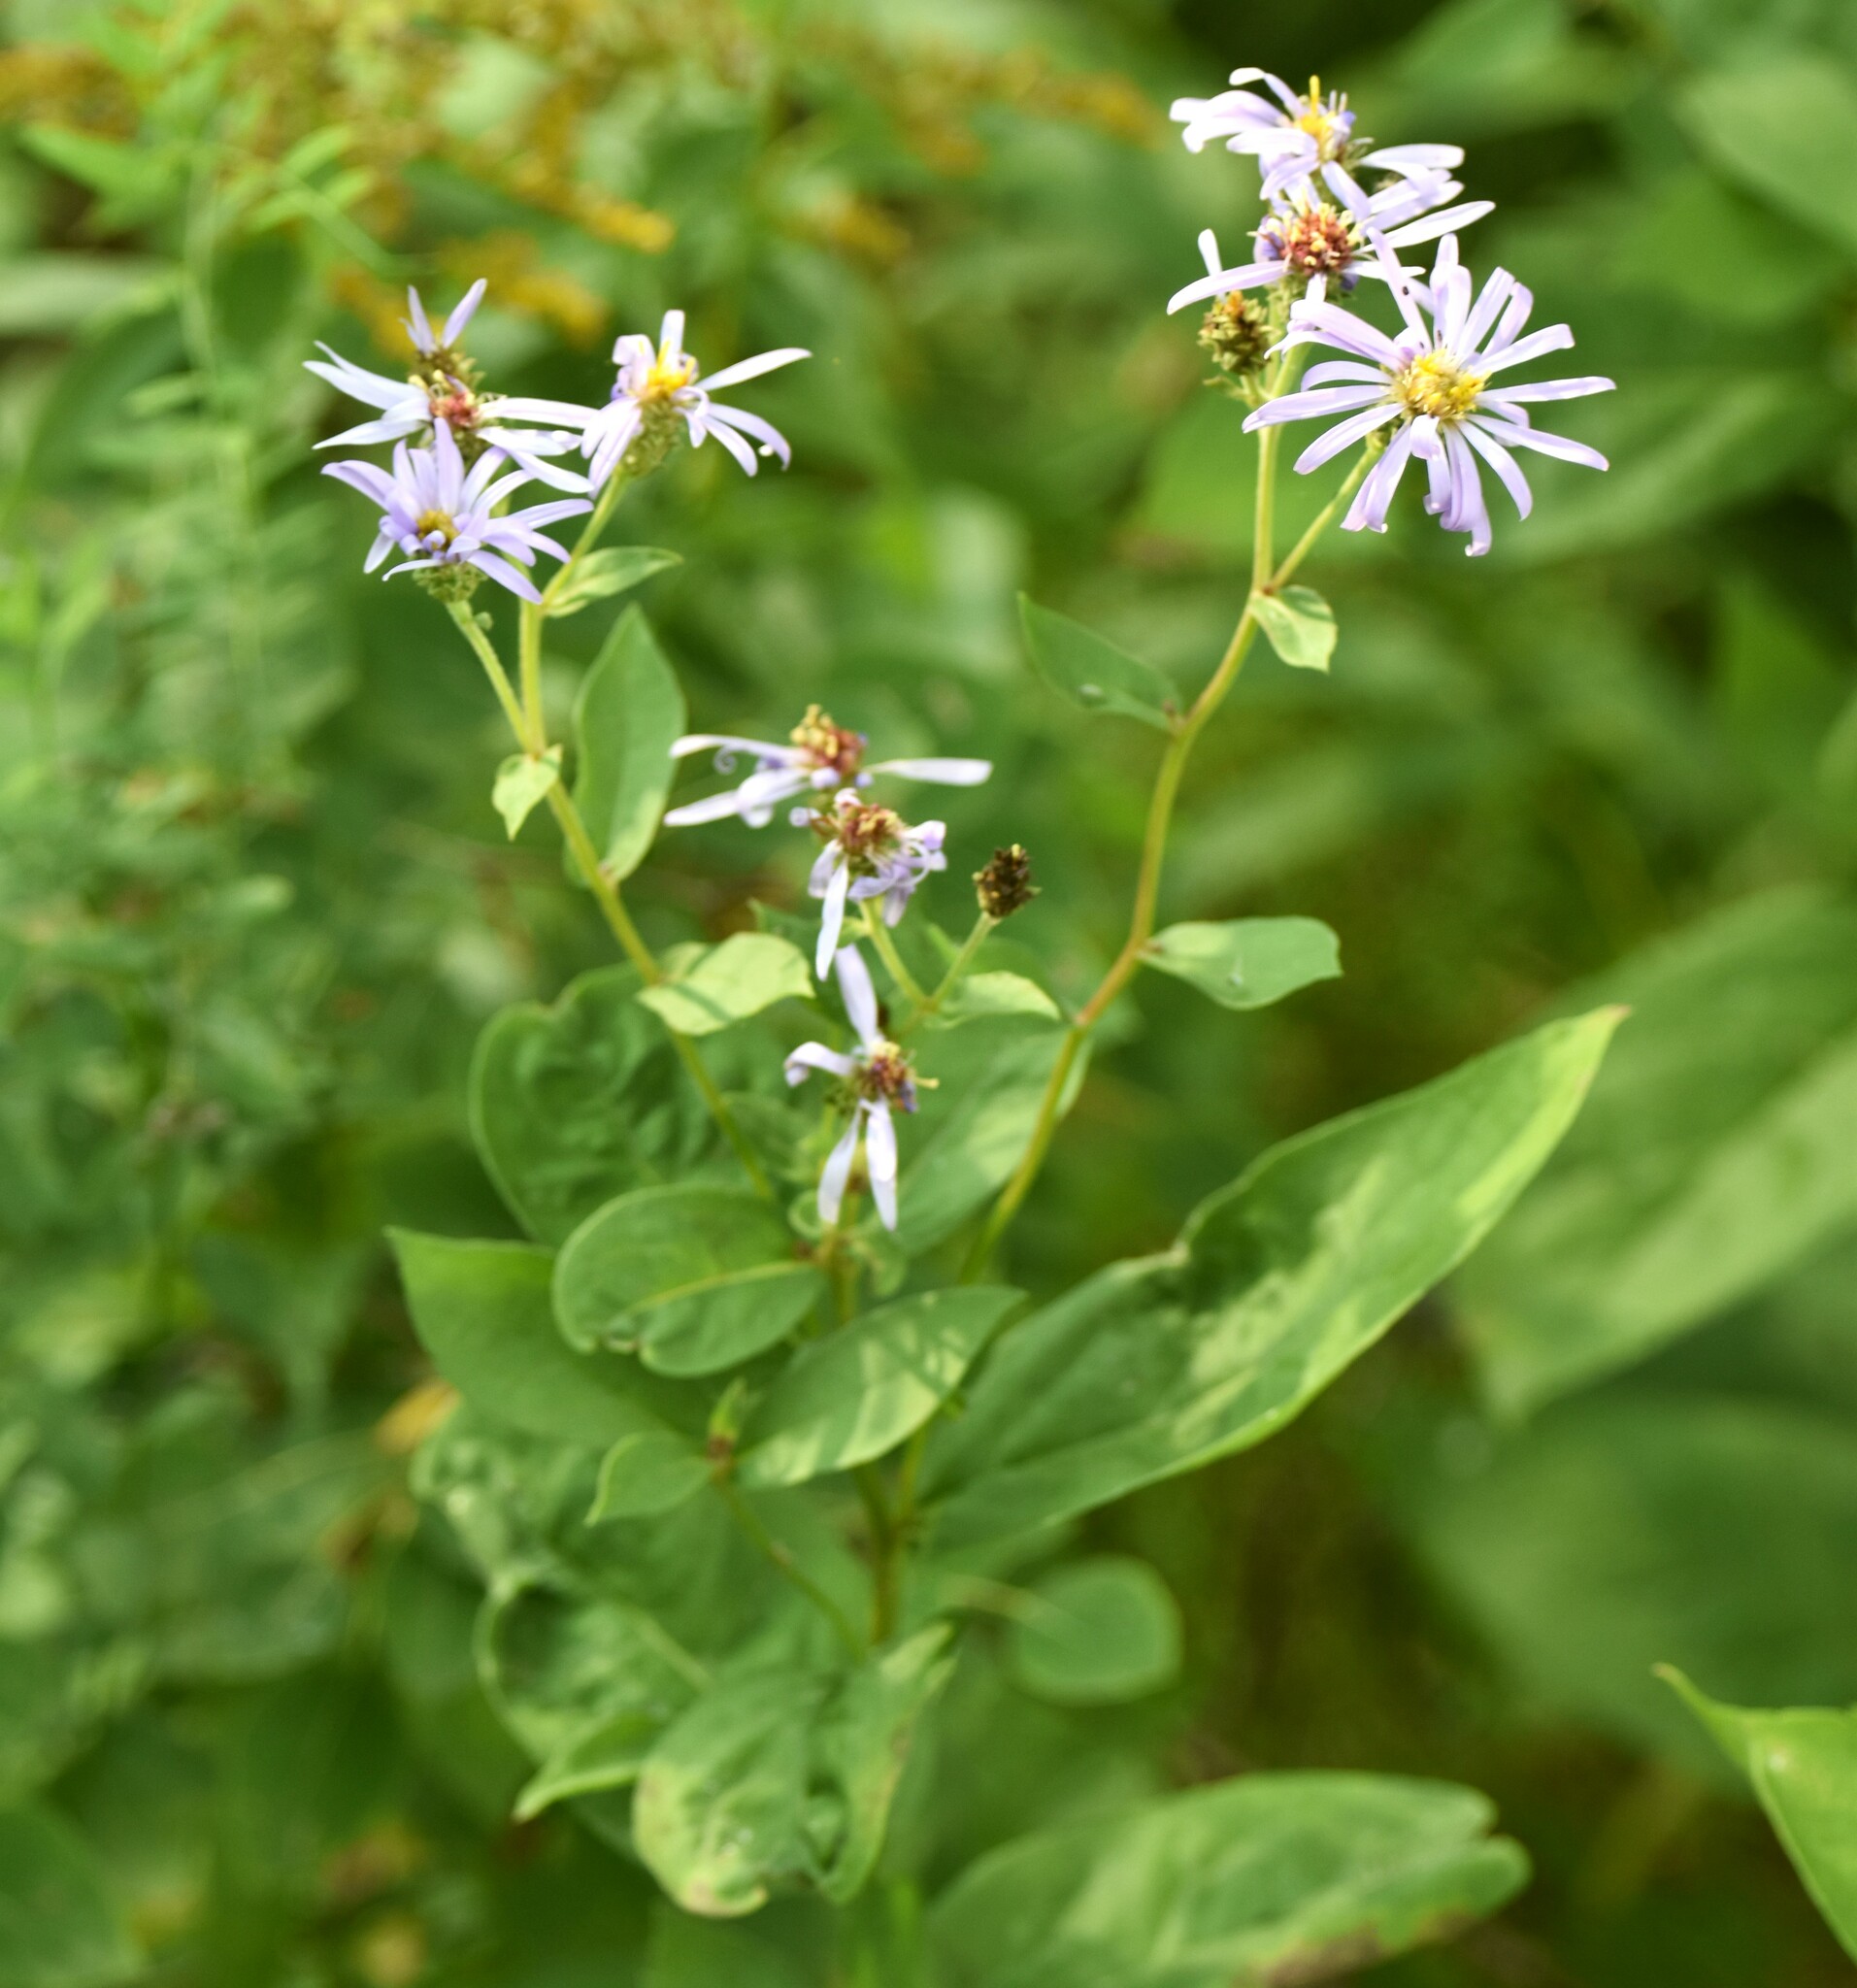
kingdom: Plantae
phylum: Tracheophyta
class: Magnoliopsida
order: Asterales
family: Asteraceae
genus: Eurybia
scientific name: Eurybia conspicua
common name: Showy aster
